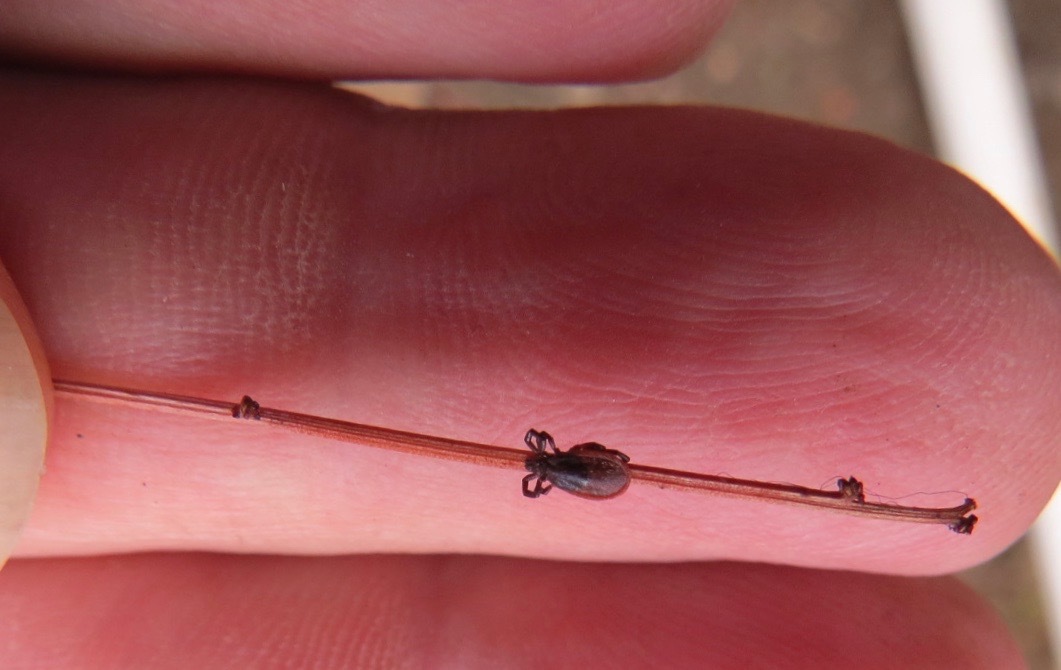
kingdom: Animalia
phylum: Arthropoda
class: Arachnida
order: Ixodida
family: Ixodidae
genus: Ixodes
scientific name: Ixodes pacificus
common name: California black-legged tick
